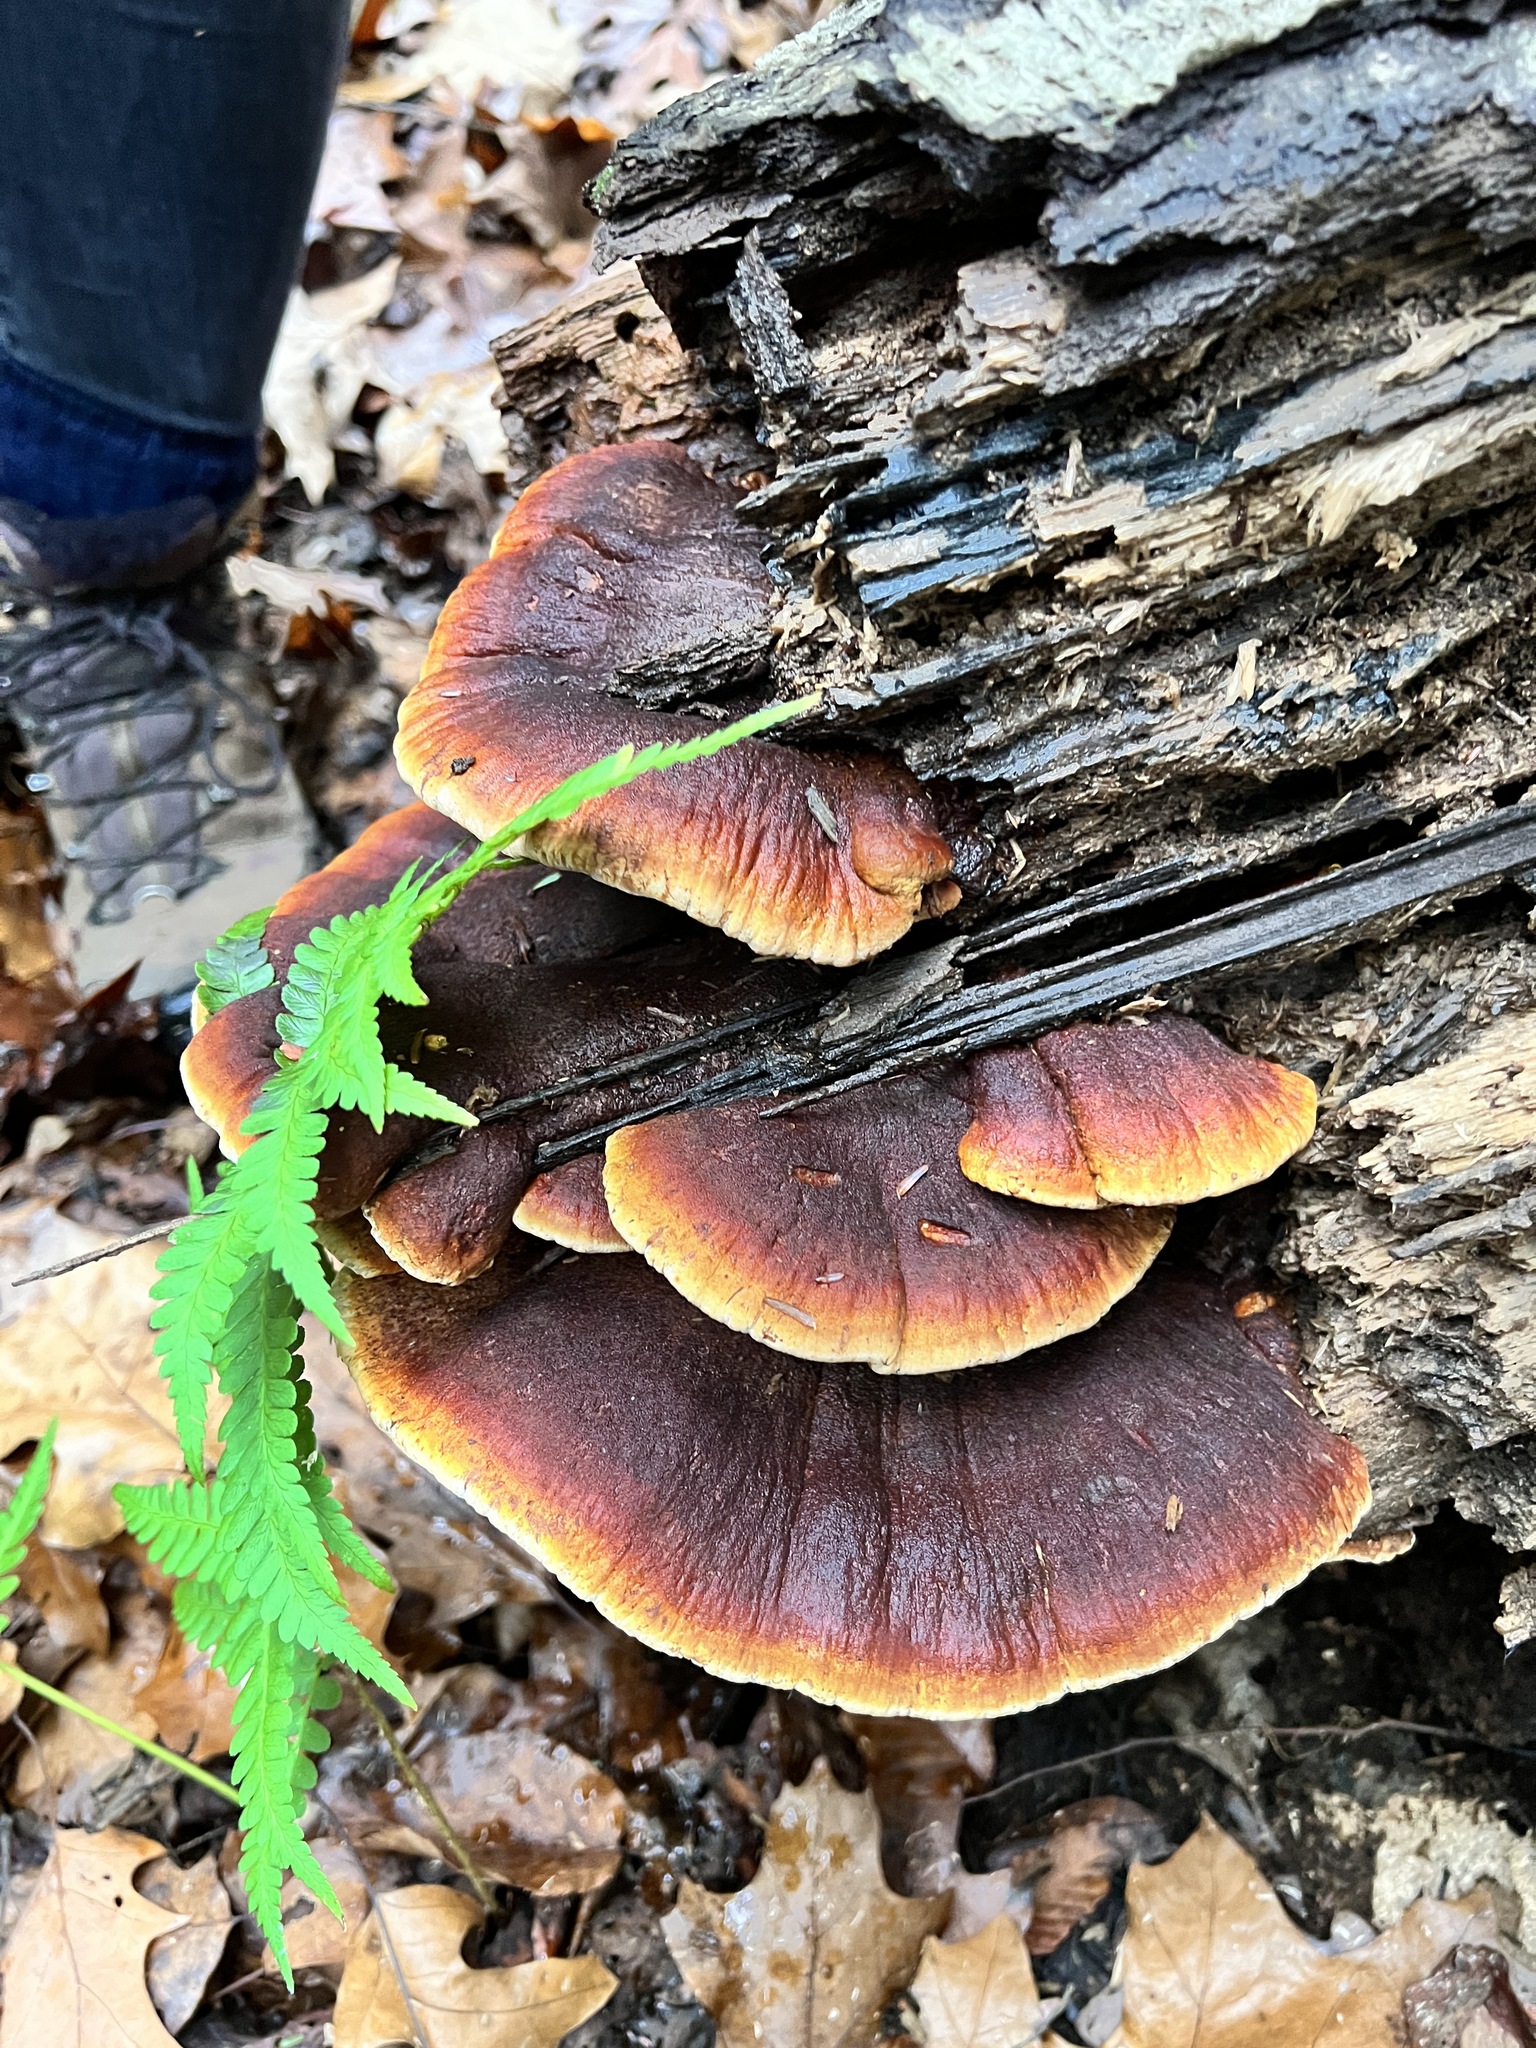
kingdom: Fungi
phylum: Basidiomycota
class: Agaricomycetes
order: Polyporales
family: Ischnodermataceae
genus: Ischnoderma
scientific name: Ischnoderma resinosum
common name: Resinous polypore
